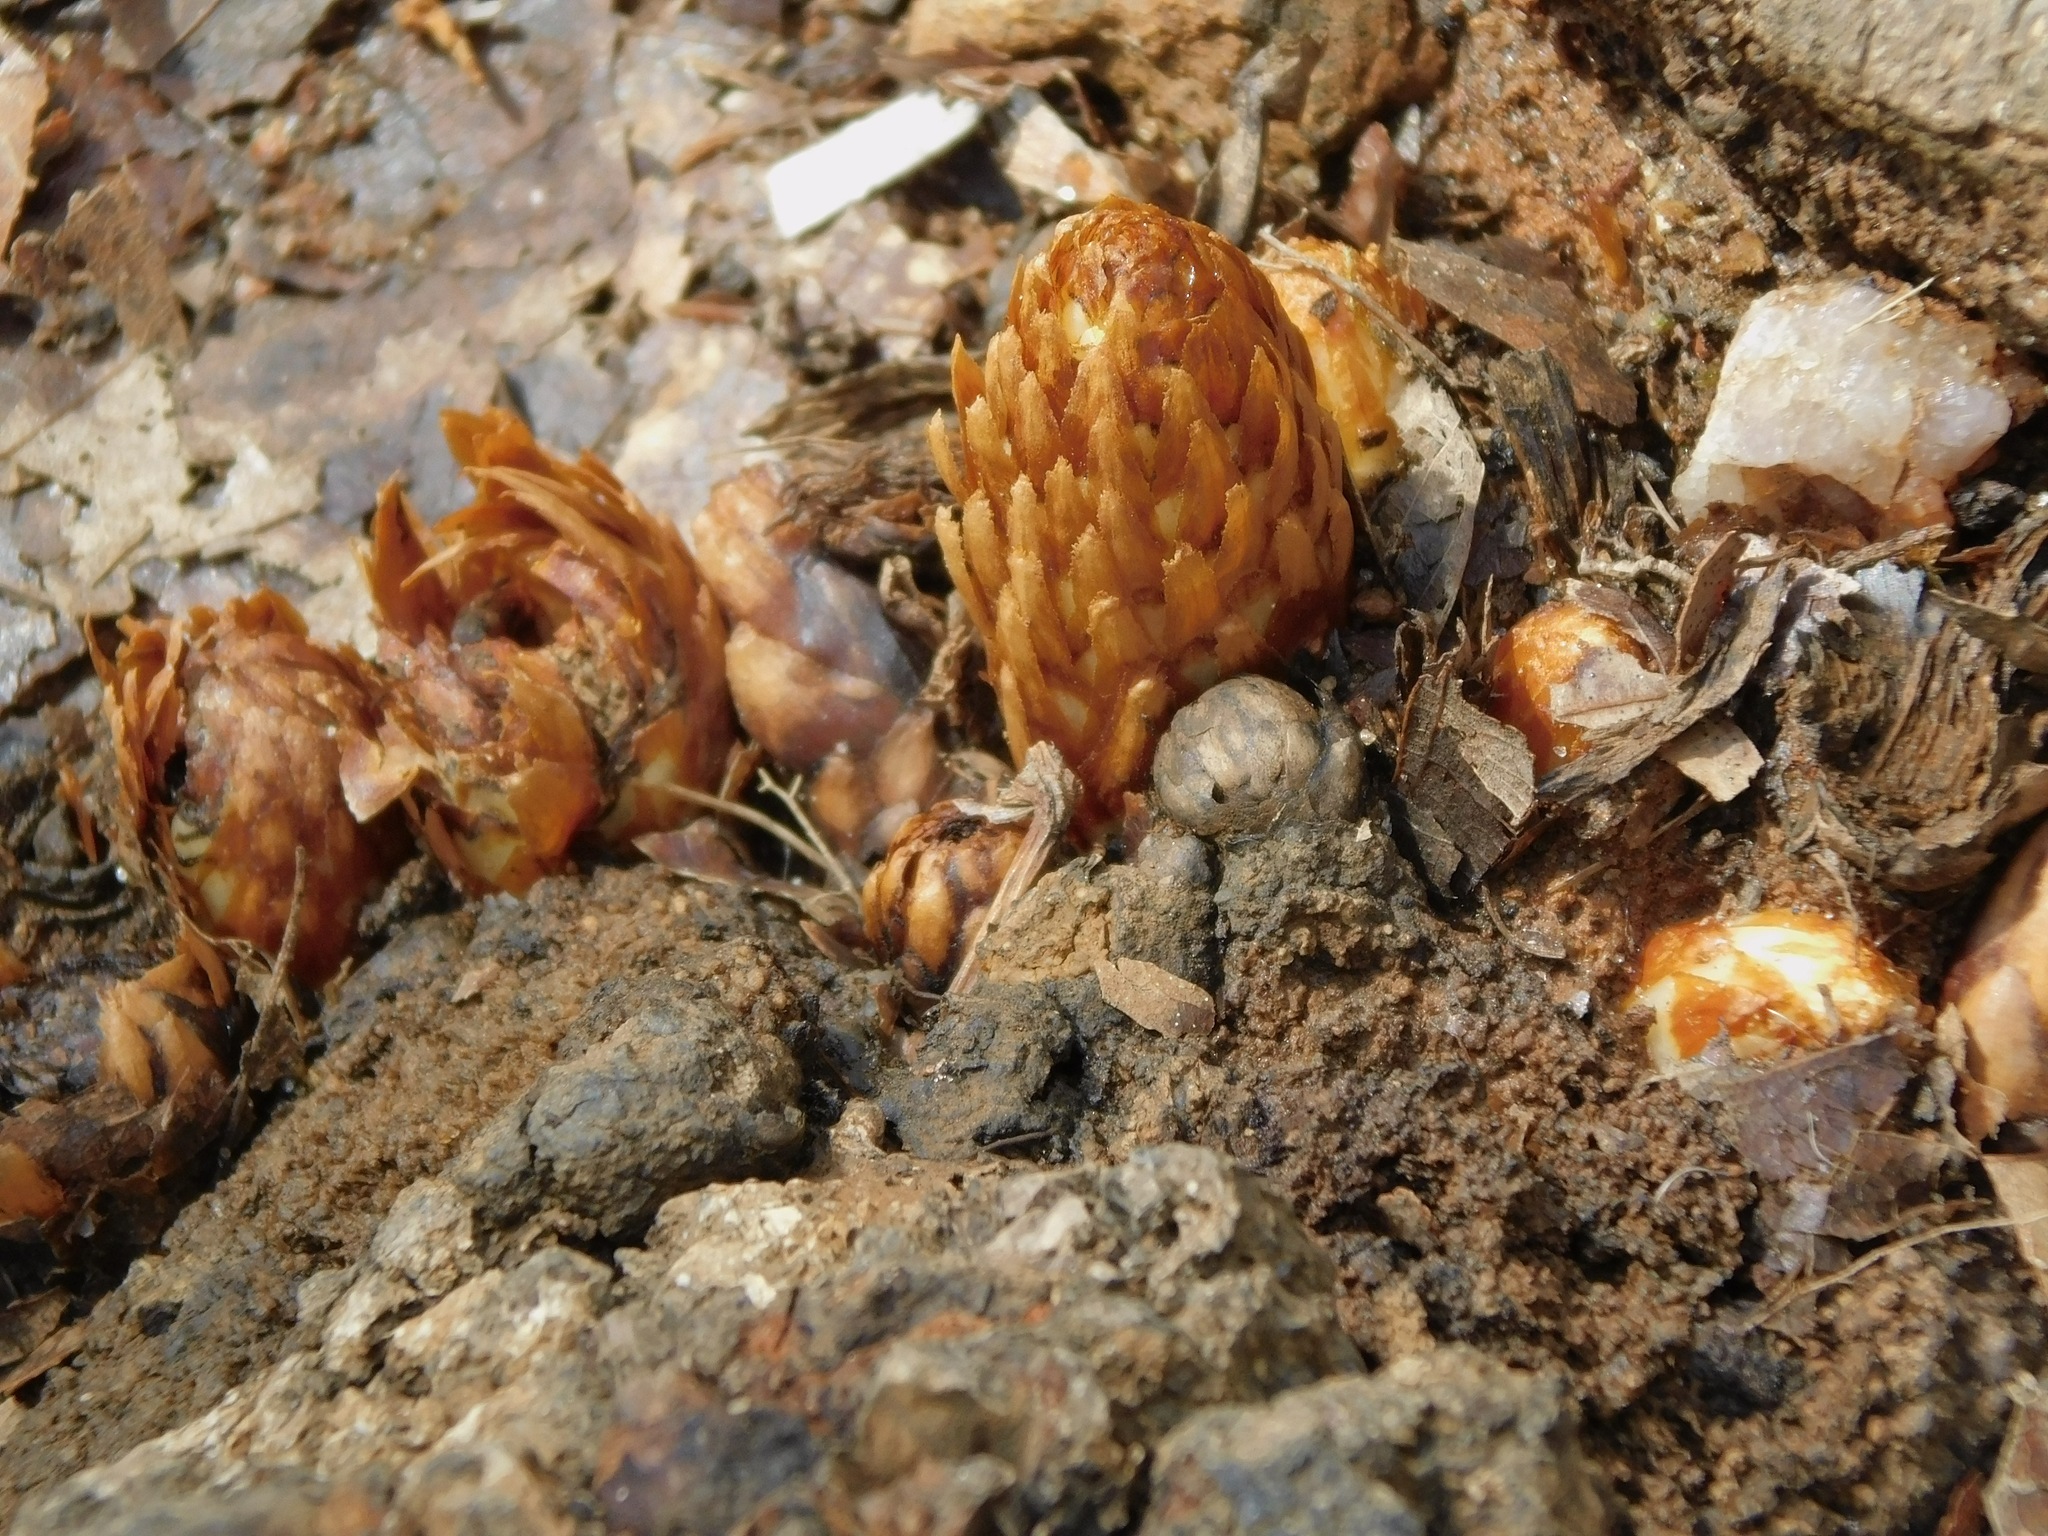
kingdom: Plantae
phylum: Tracheophyta
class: Magnoliopsida
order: Lamiales
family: Orobanchaceae
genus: Conopholis
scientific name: Conopholis americana
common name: American cancer-root
